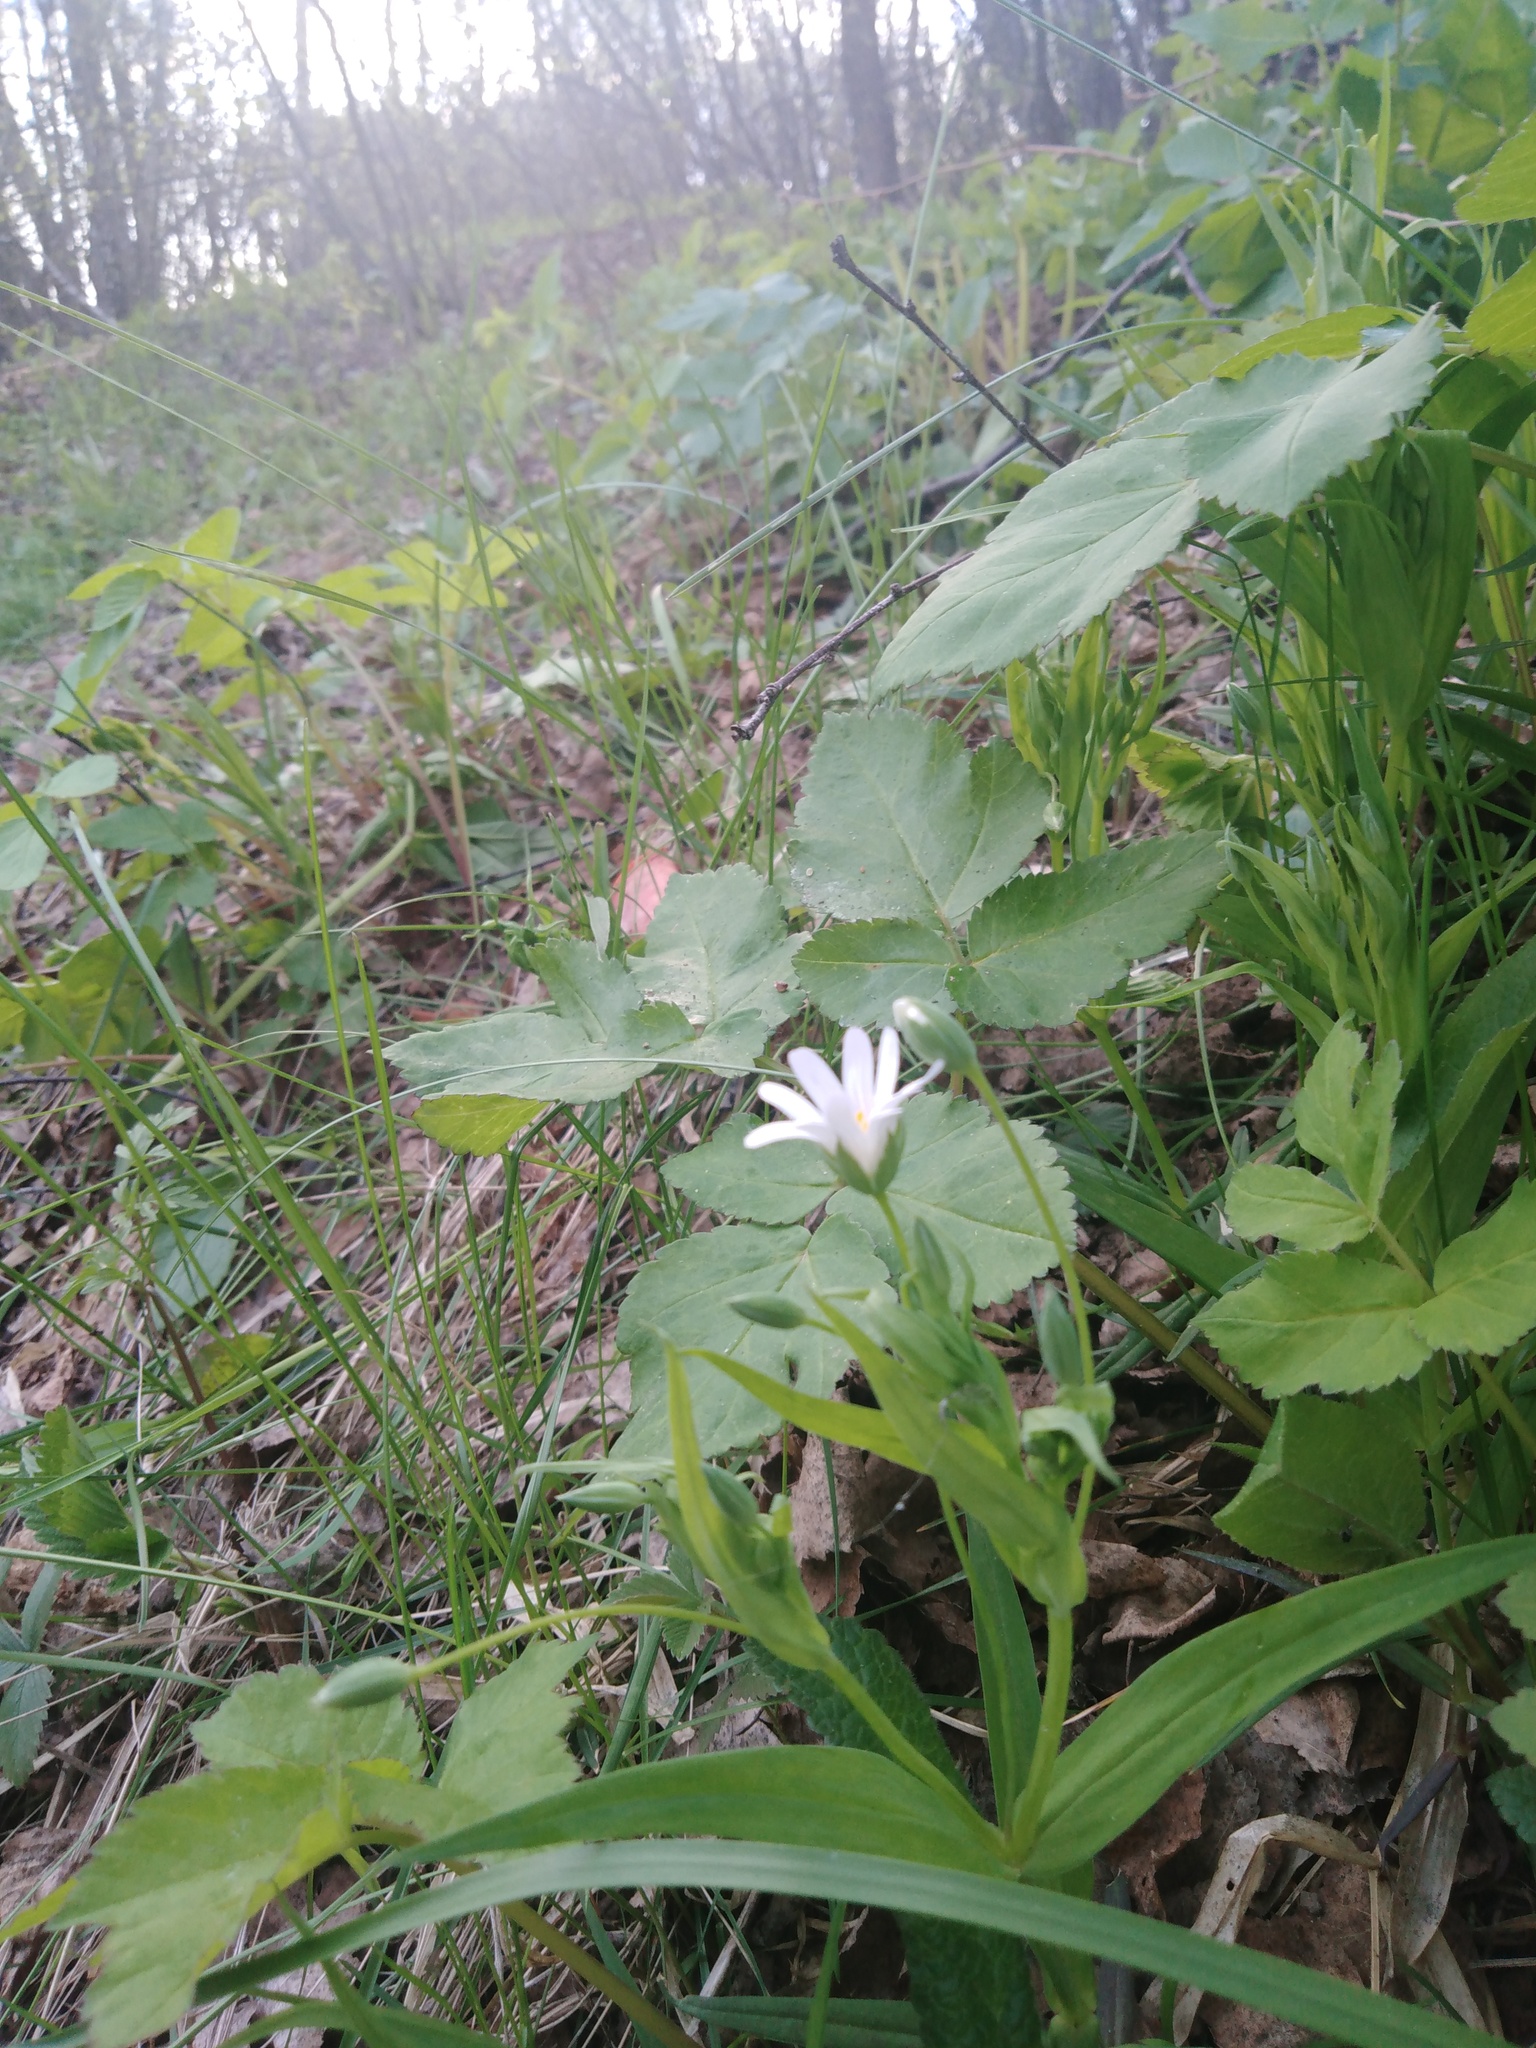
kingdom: Plantae
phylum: Tracheophyta
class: Magnoliopsida
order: Caryophyllales
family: Caryophyllaceae
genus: Rabelera
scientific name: Rabelera holostea
